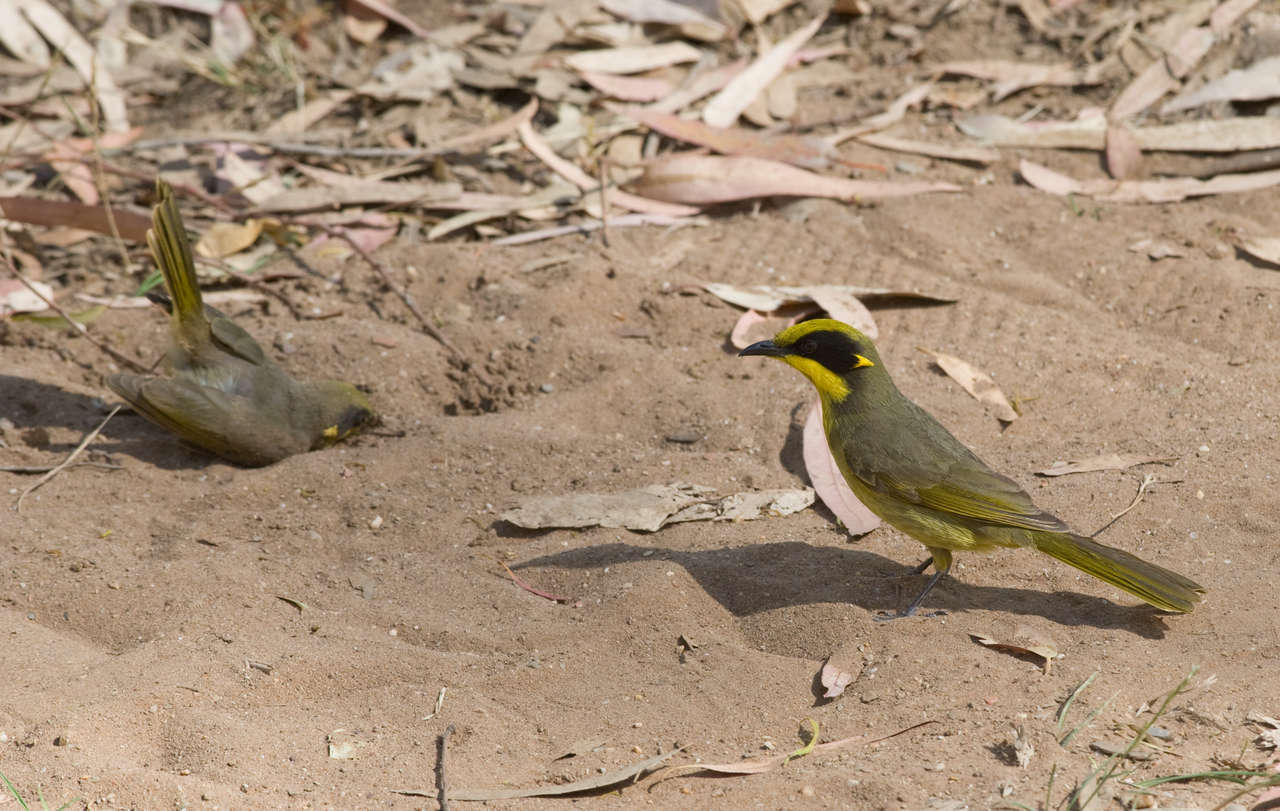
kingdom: Animalia
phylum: Chordata
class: Aves
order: Passeriformes
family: Meliphagidae
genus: Lichenostomus
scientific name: Lichenostomus melanops
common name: Yellow-tufted honeyeater
